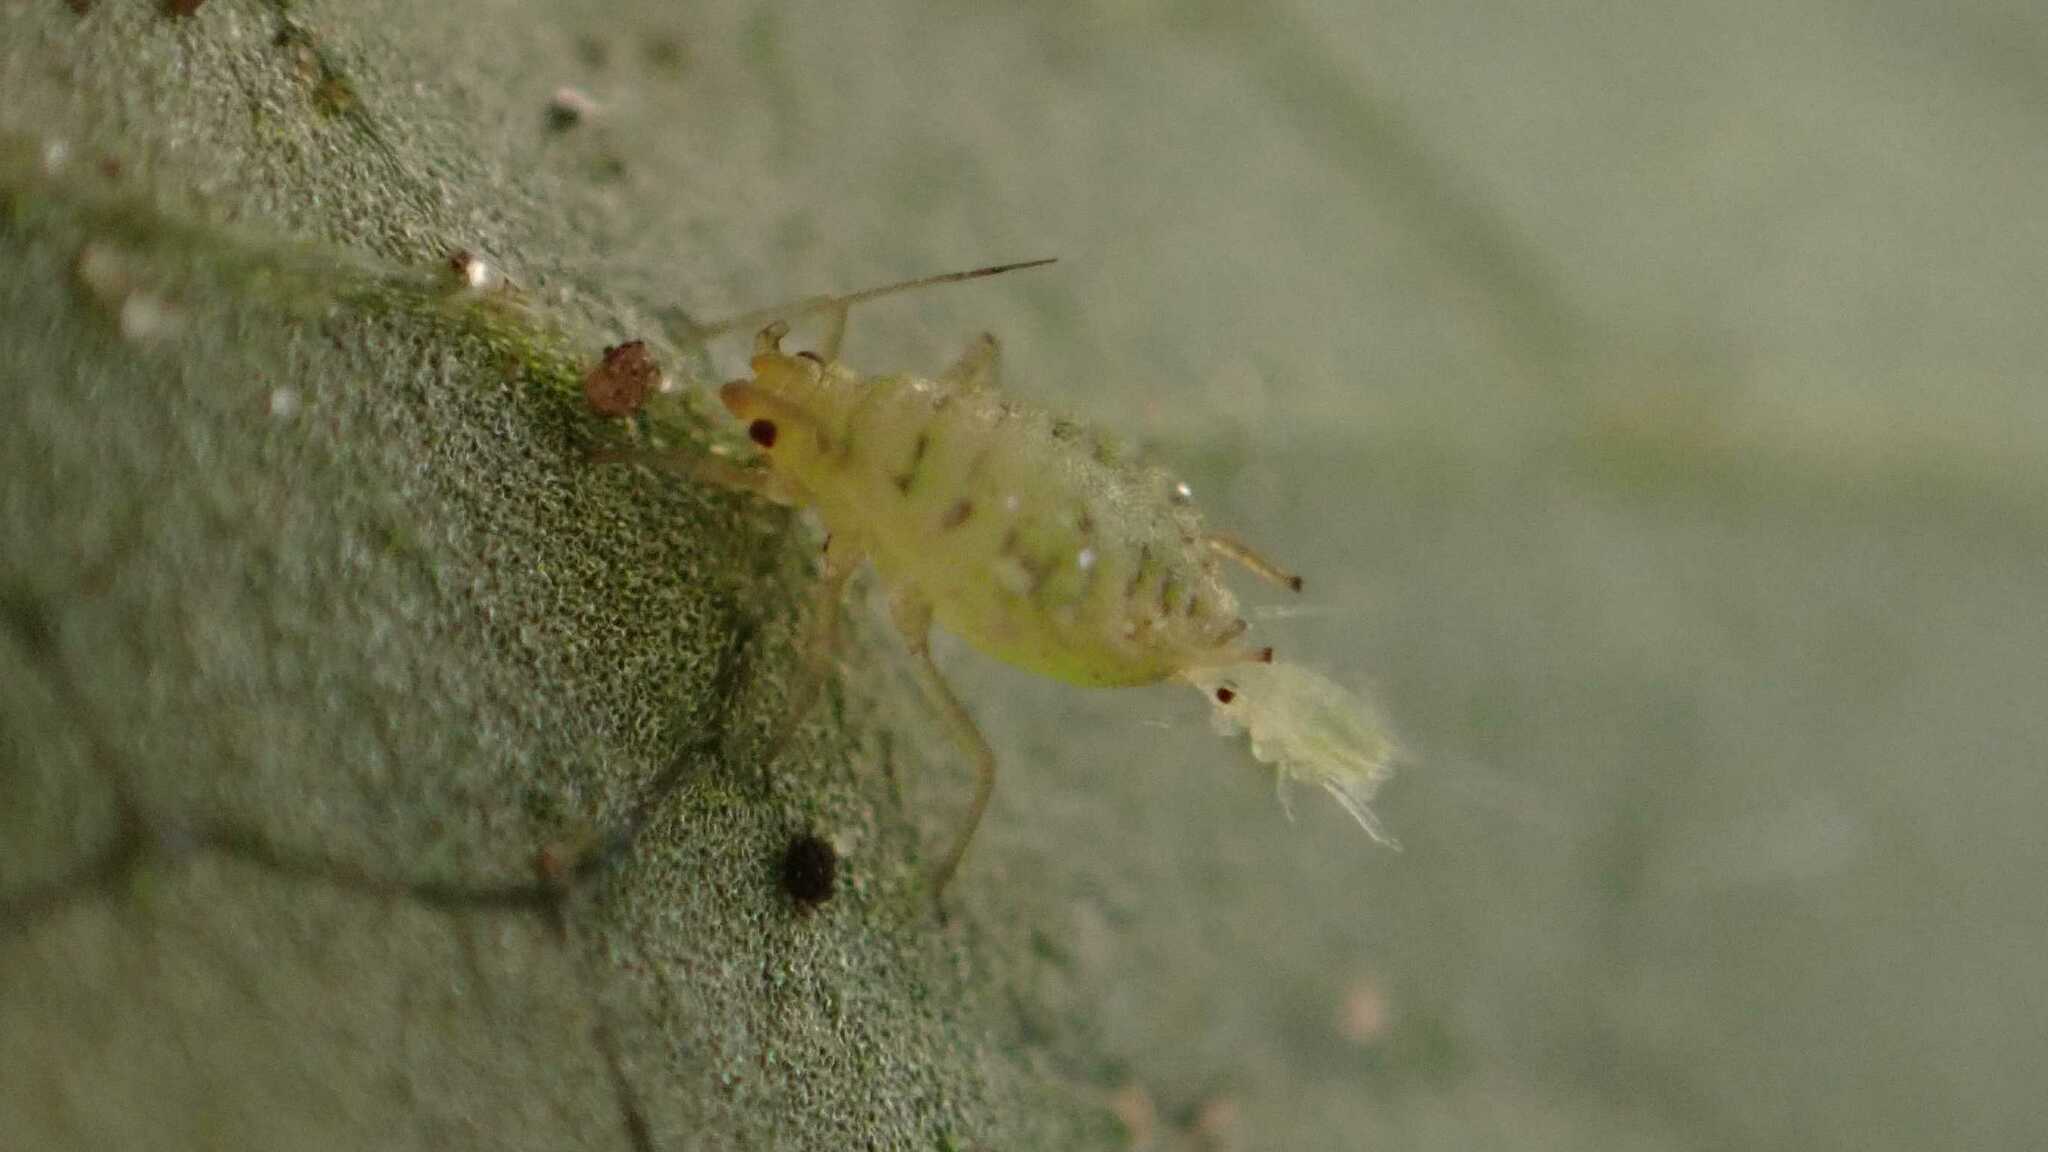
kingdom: Animalia
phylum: Arthropoda
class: Insecta
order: Hemiptera
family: Aphididae
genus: Myzus
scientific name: Myzus ornatus
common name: Ornate aphid
